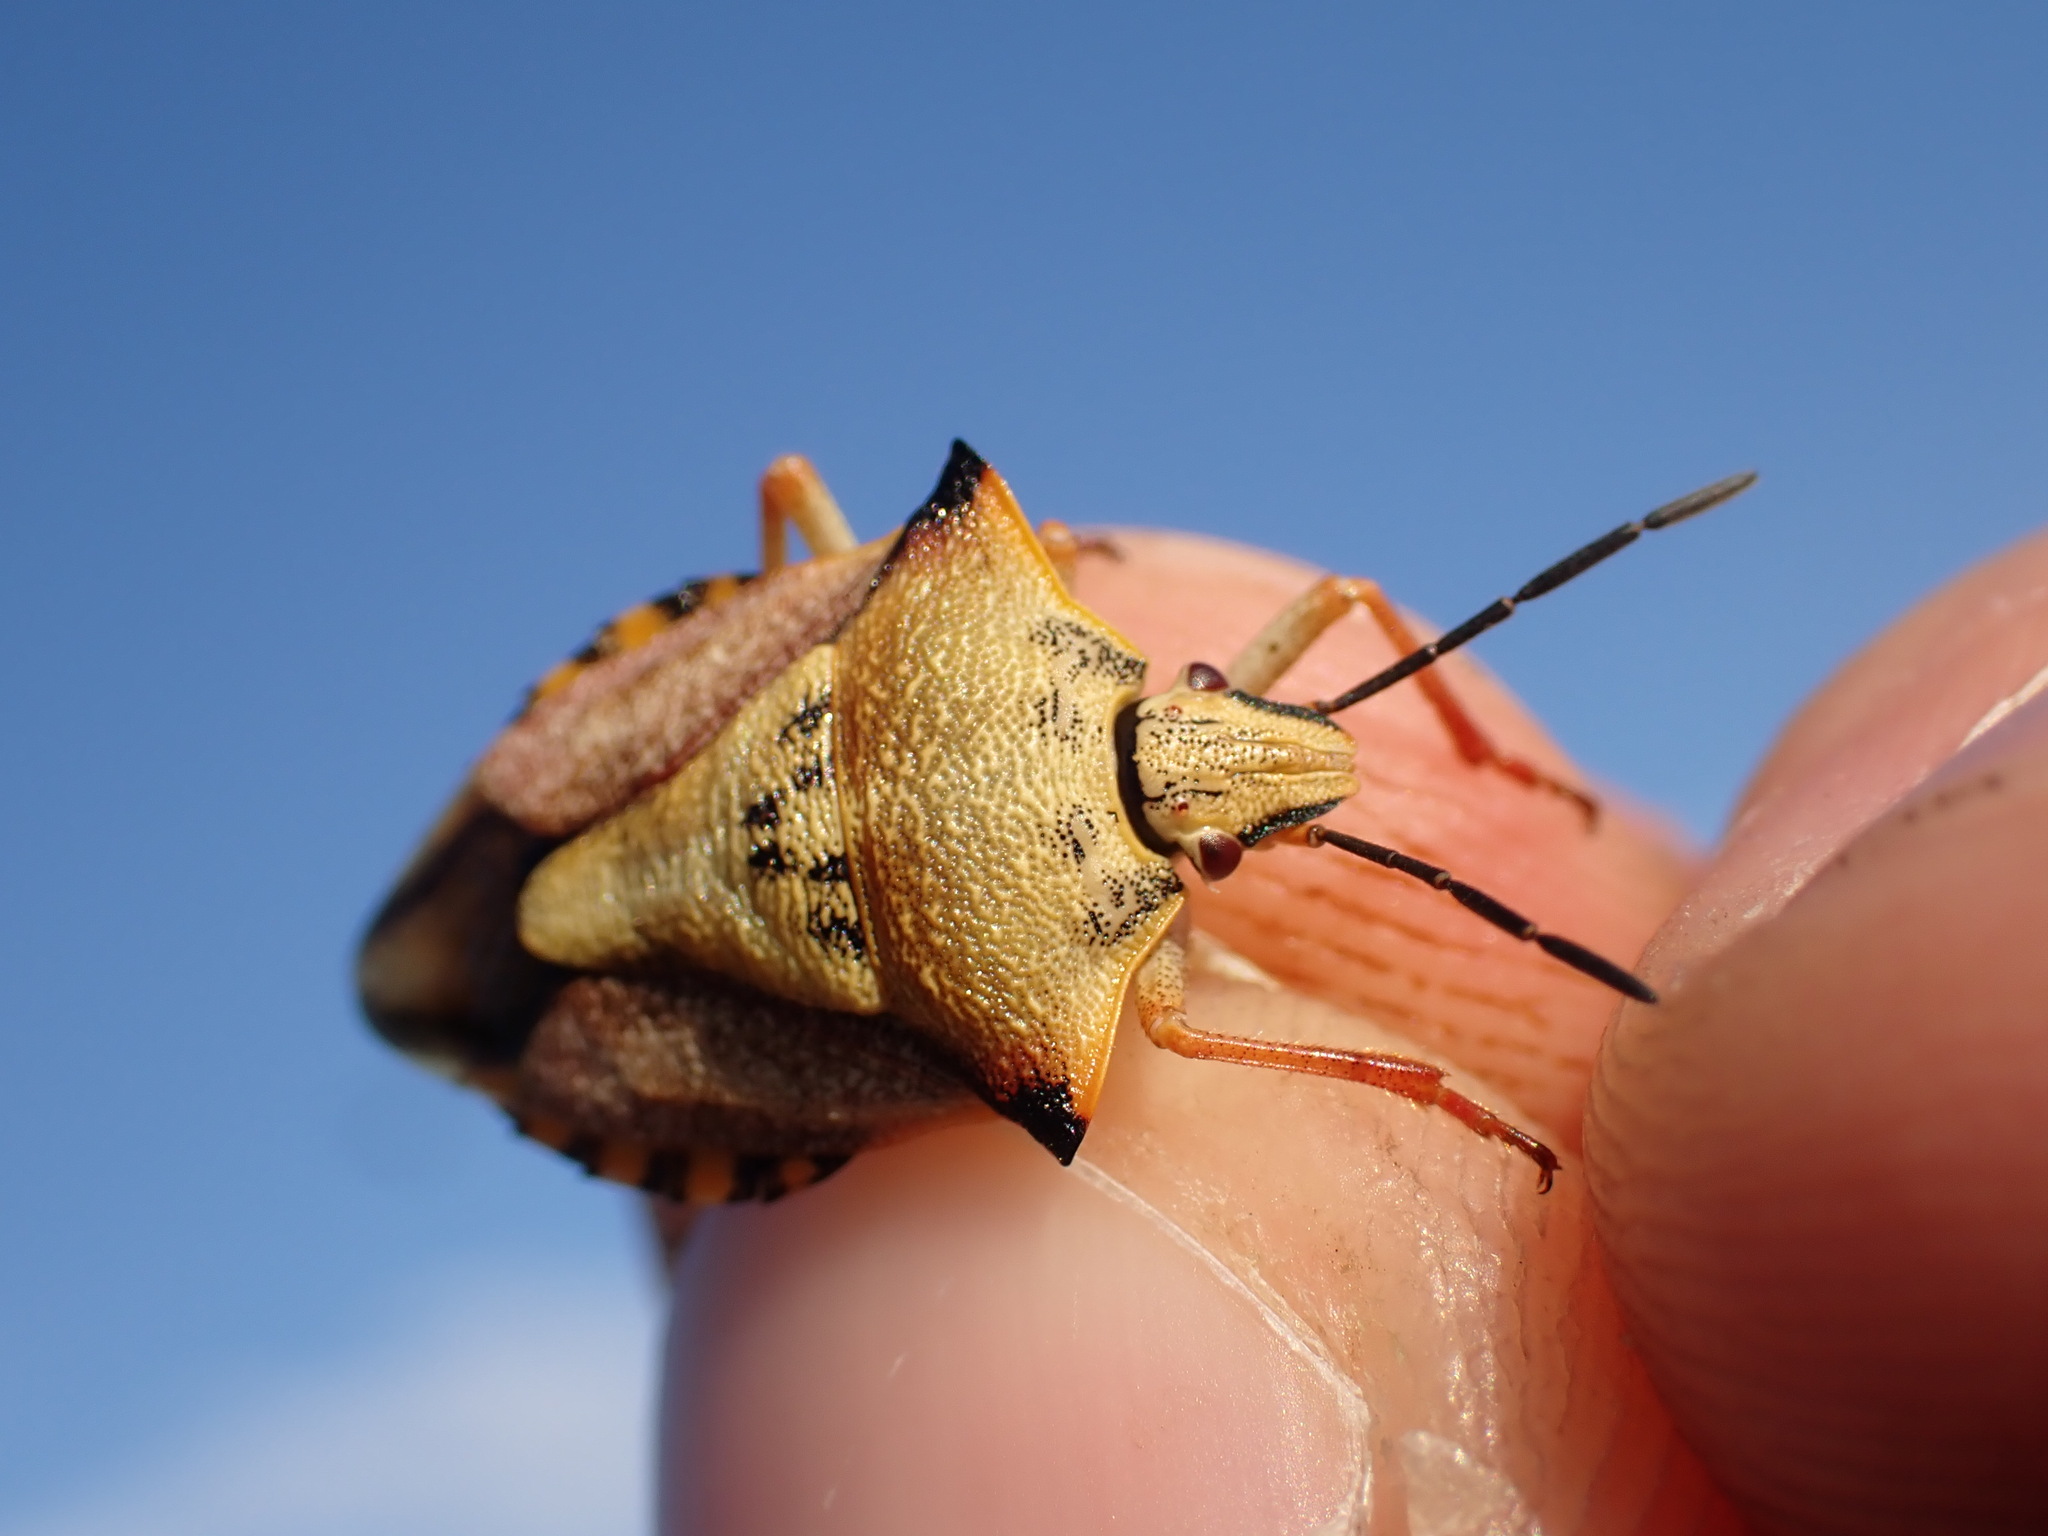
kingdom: Animalia
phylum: Arthropoda
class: Insecta
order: Hemiptera
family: Pentatomidae
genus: Carpocoris
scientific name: Carpocoris mediterraneus
